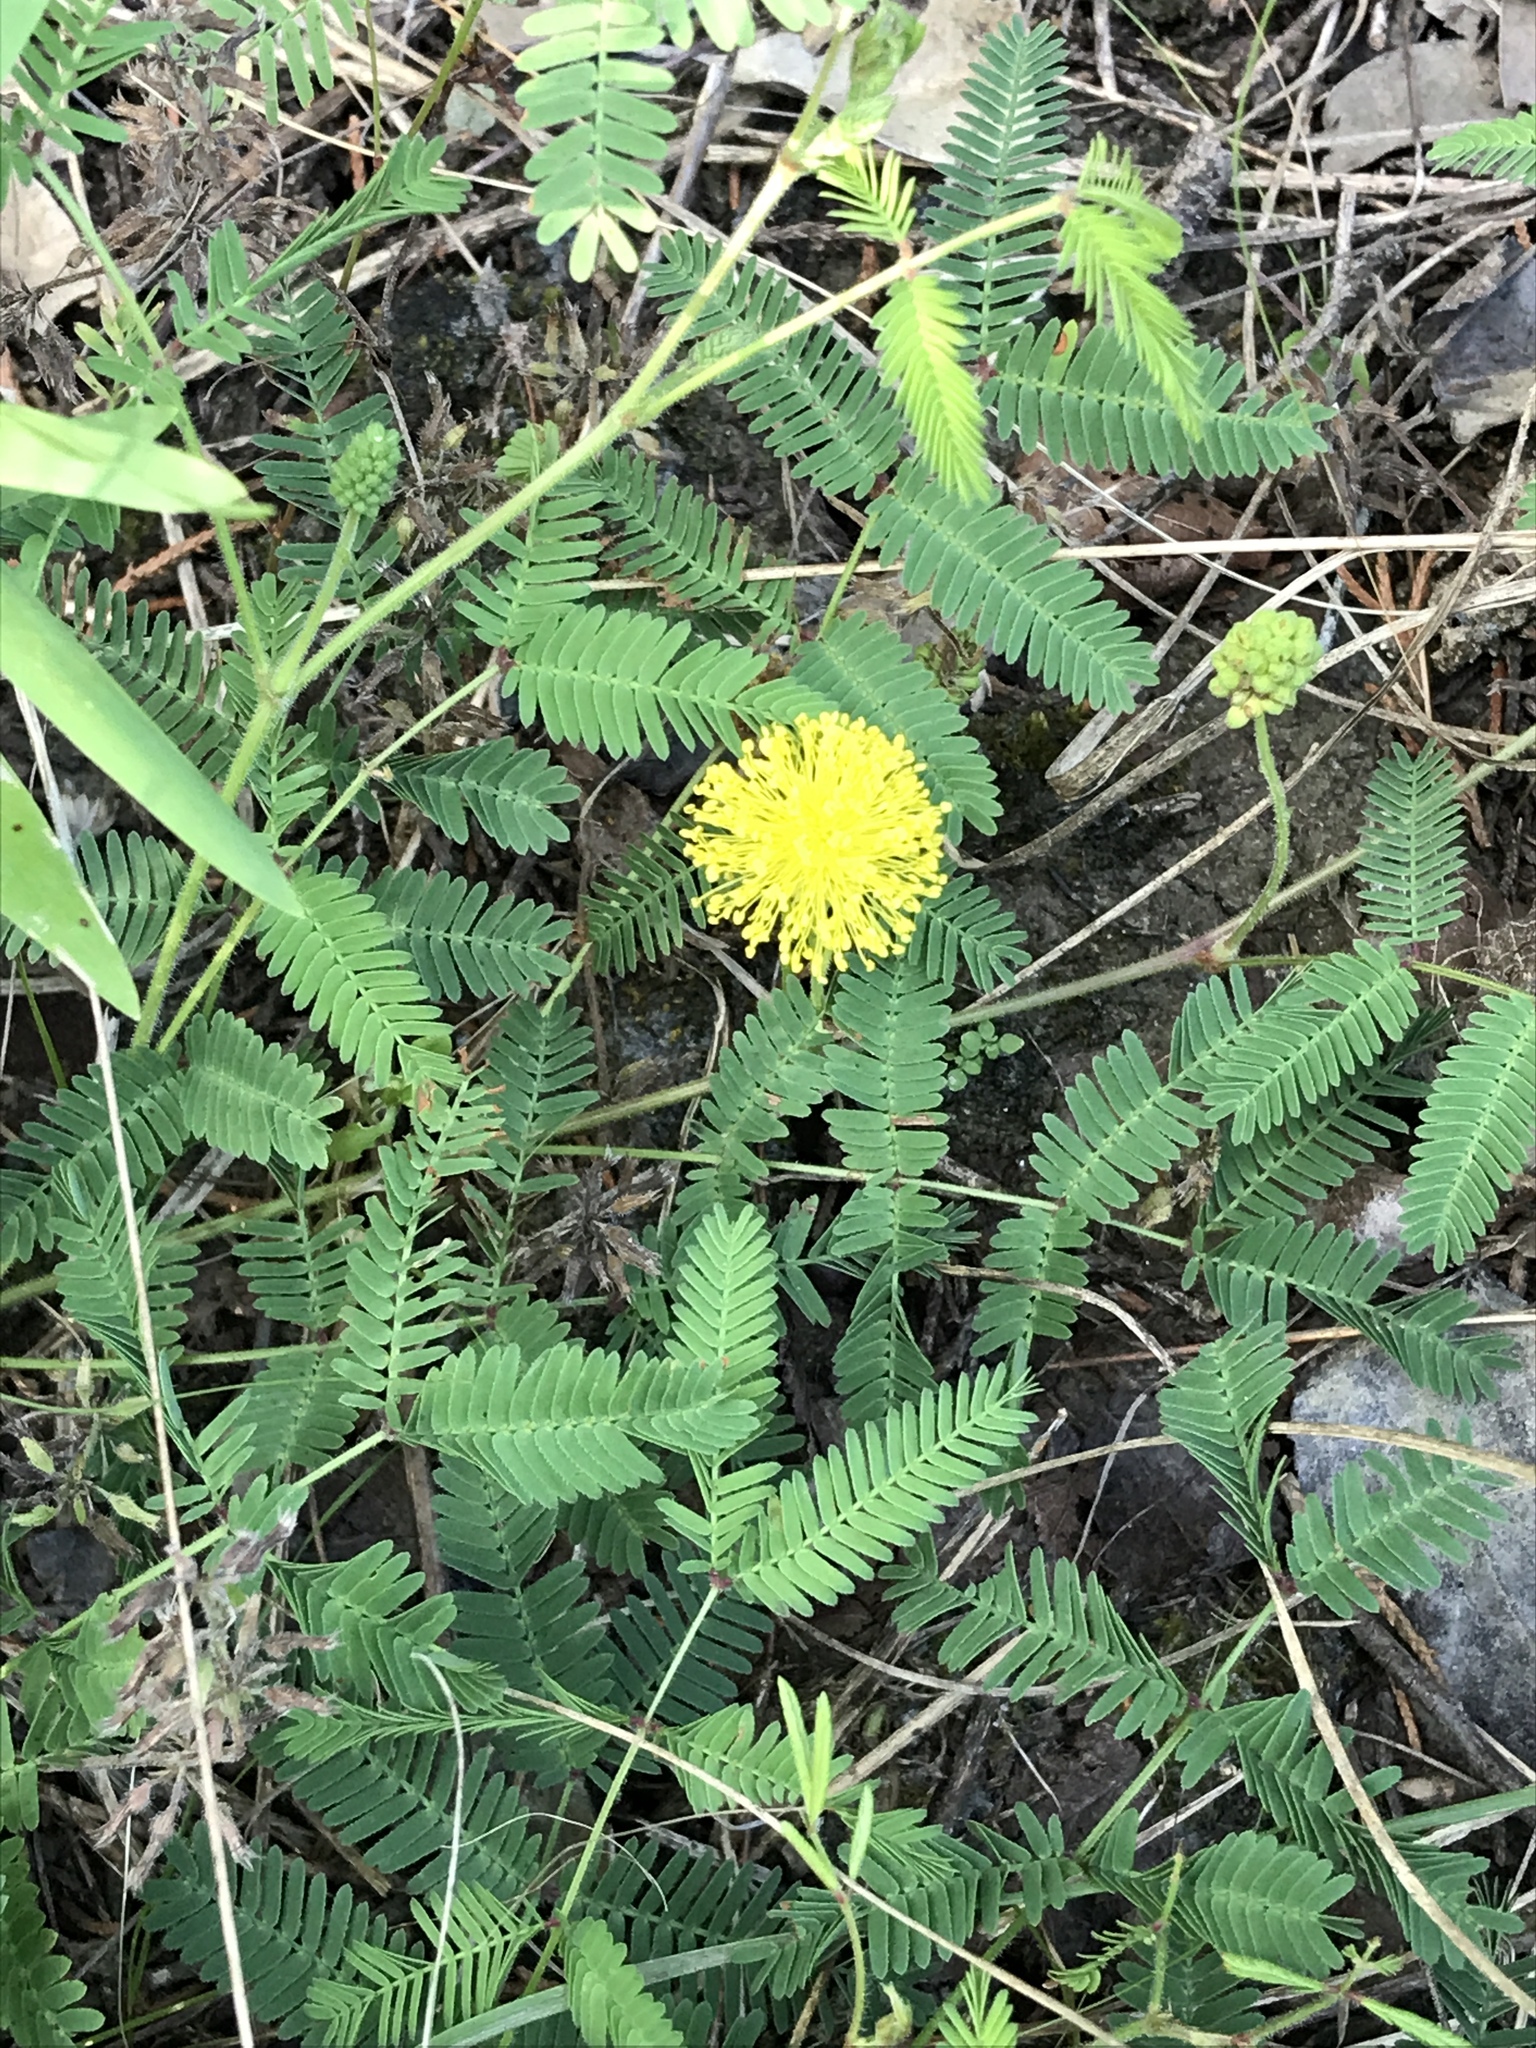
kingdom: Plantae
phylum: Tracheophyta
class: Magnoliopsida
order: Fabales
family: Fabaceae
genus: Neptunia
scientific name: Neptunia lutea
